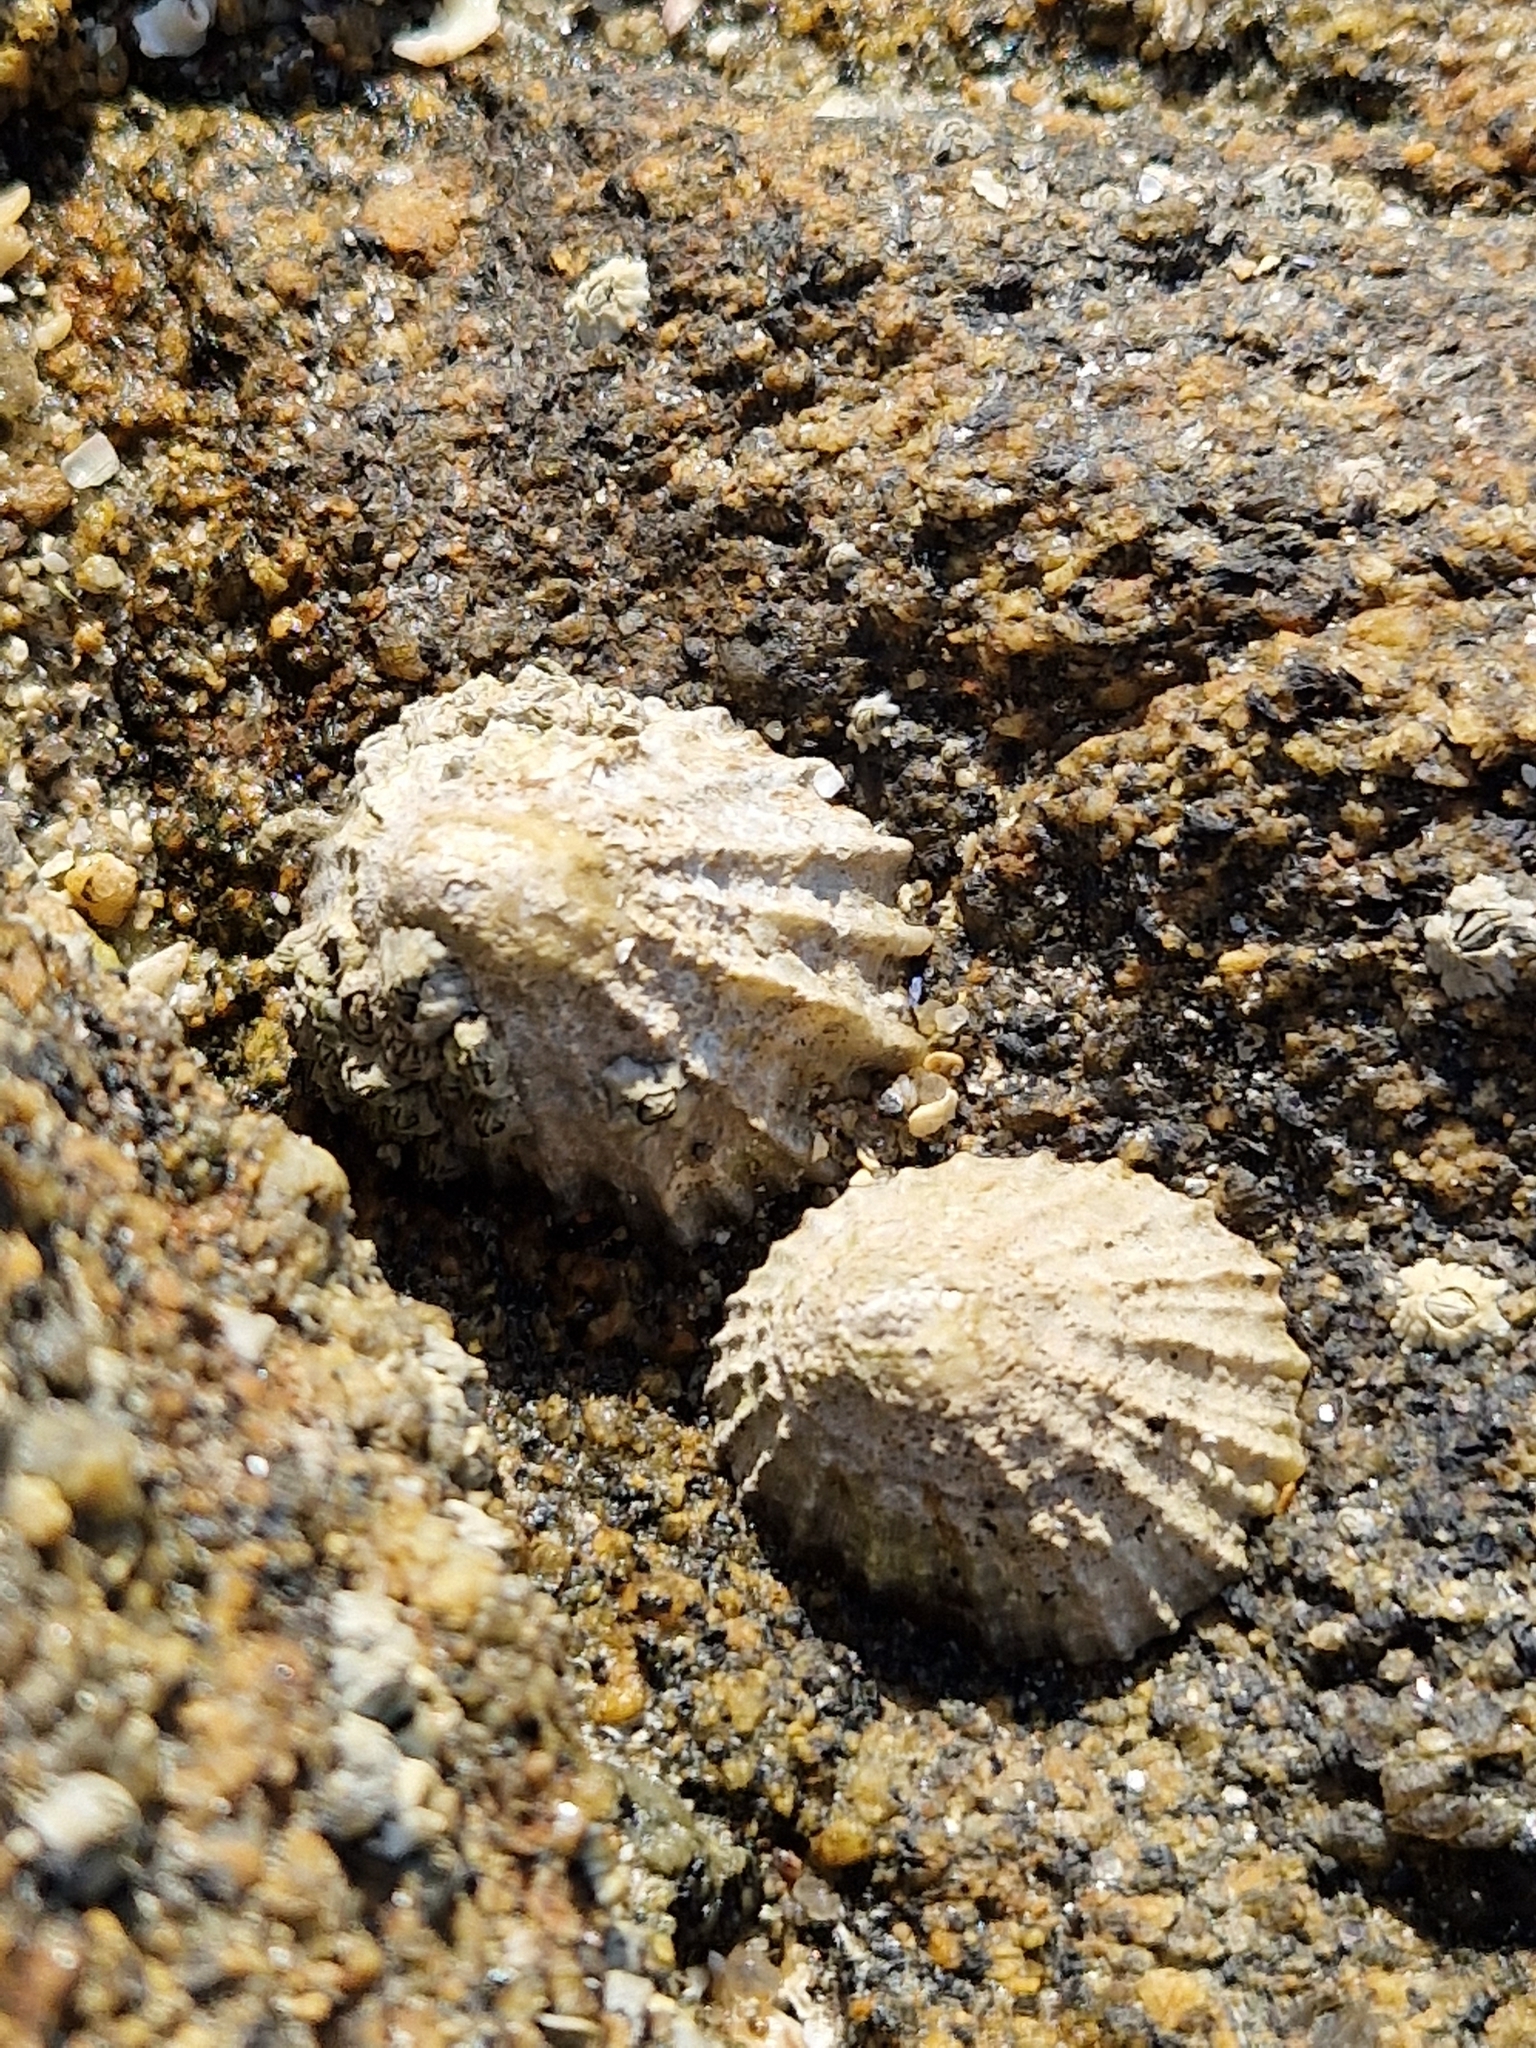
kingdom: Animalia
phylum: Mollusca
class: Gastropoda
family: Patellidae
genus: Patella
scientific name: Patella vulgata
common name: Common limpet
